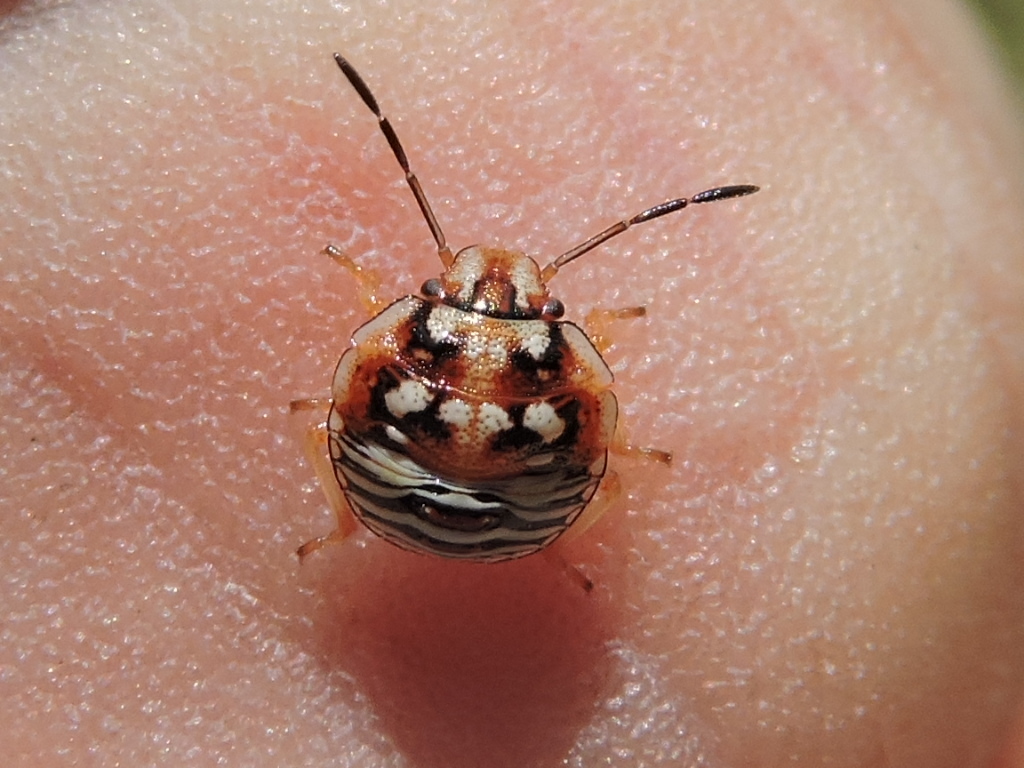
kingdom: Animalia
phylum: Arthropoda
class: Insecta
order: Hemiptera
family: Pentatomidae
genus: Thyanta
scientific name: Thyanta custator
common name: Stink bug
